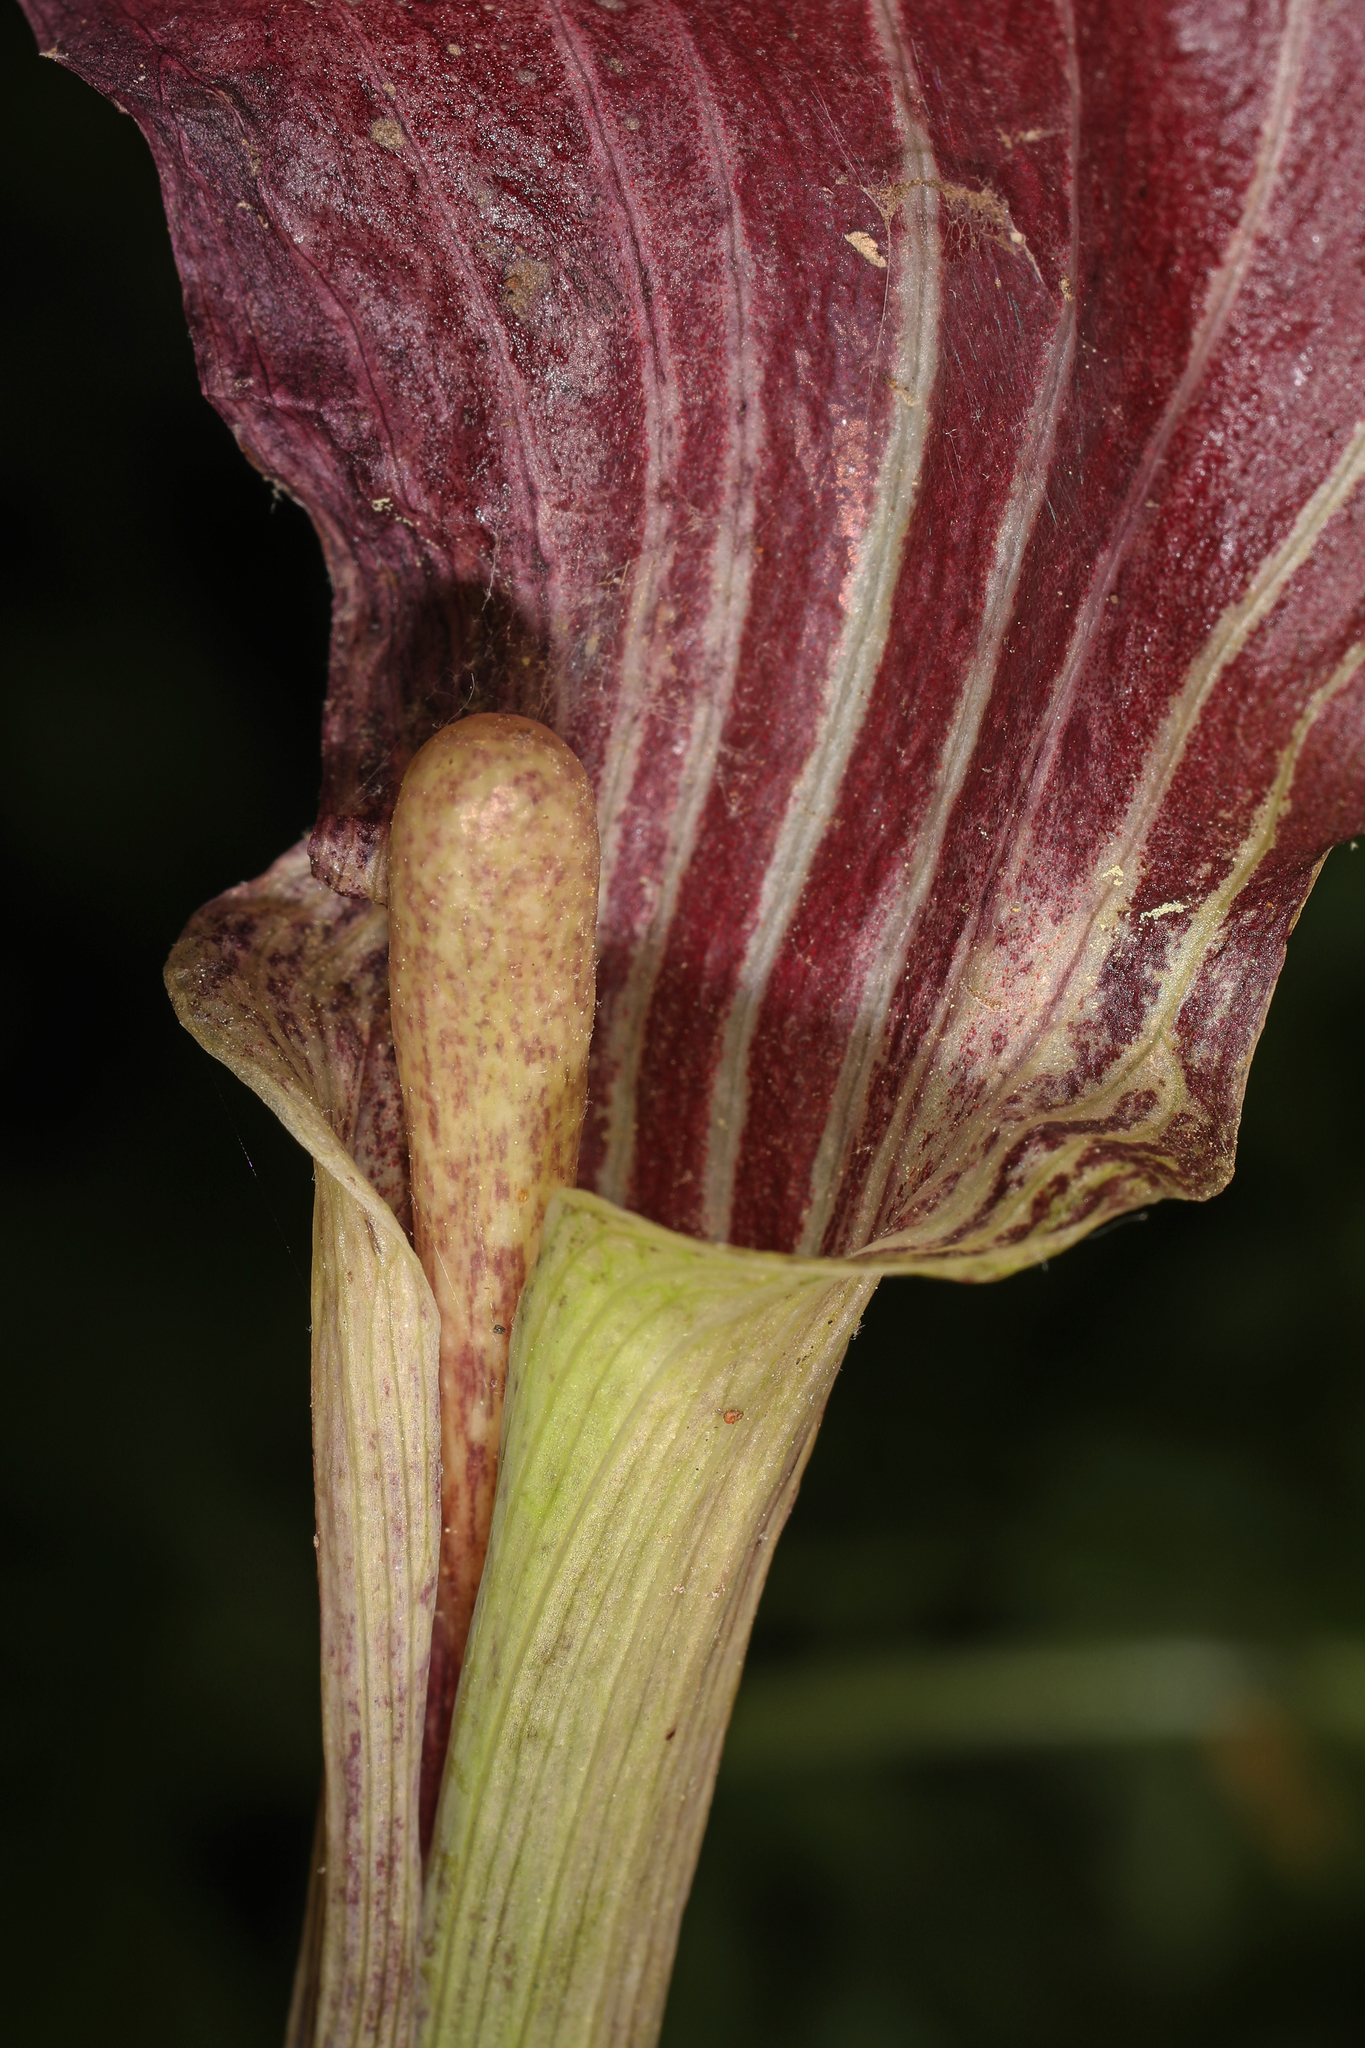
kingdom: Plantae
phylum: Tracheophyta
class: Liliopsida
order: Alismatales
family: Araceae
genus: Arisaema
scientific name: Arisaema triphyllum
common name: Jack-in-the-pulpit
